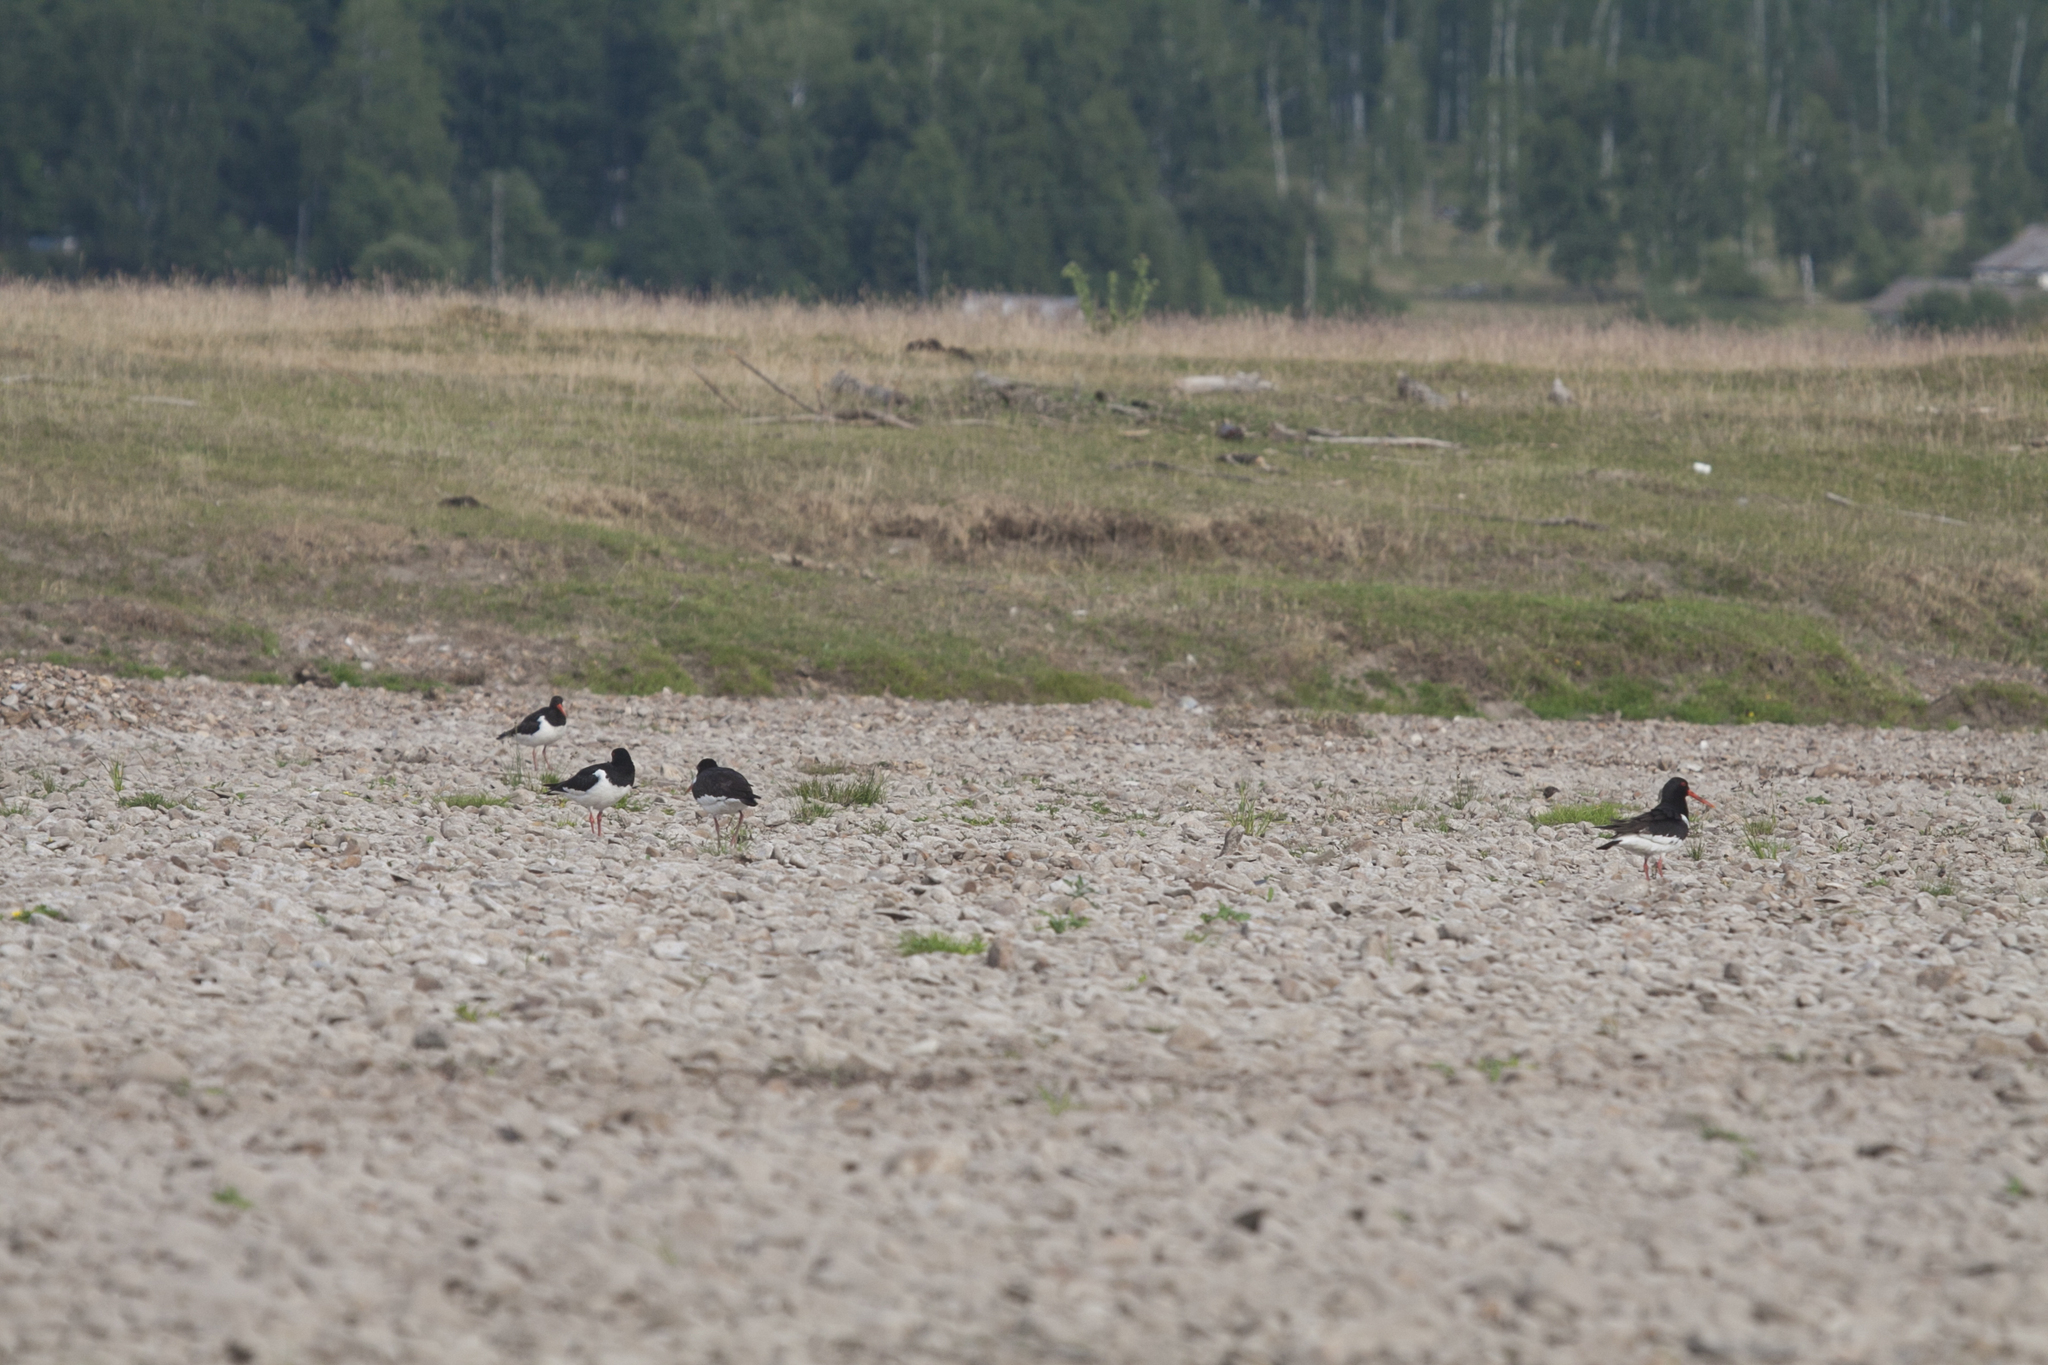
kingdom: Animalia
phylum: Chordata
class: Aves
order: Charadriiformes
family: Haematopodidae
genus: Haematopus
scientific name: Haematopus ostralegus
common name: Eurasian oystercatcher
